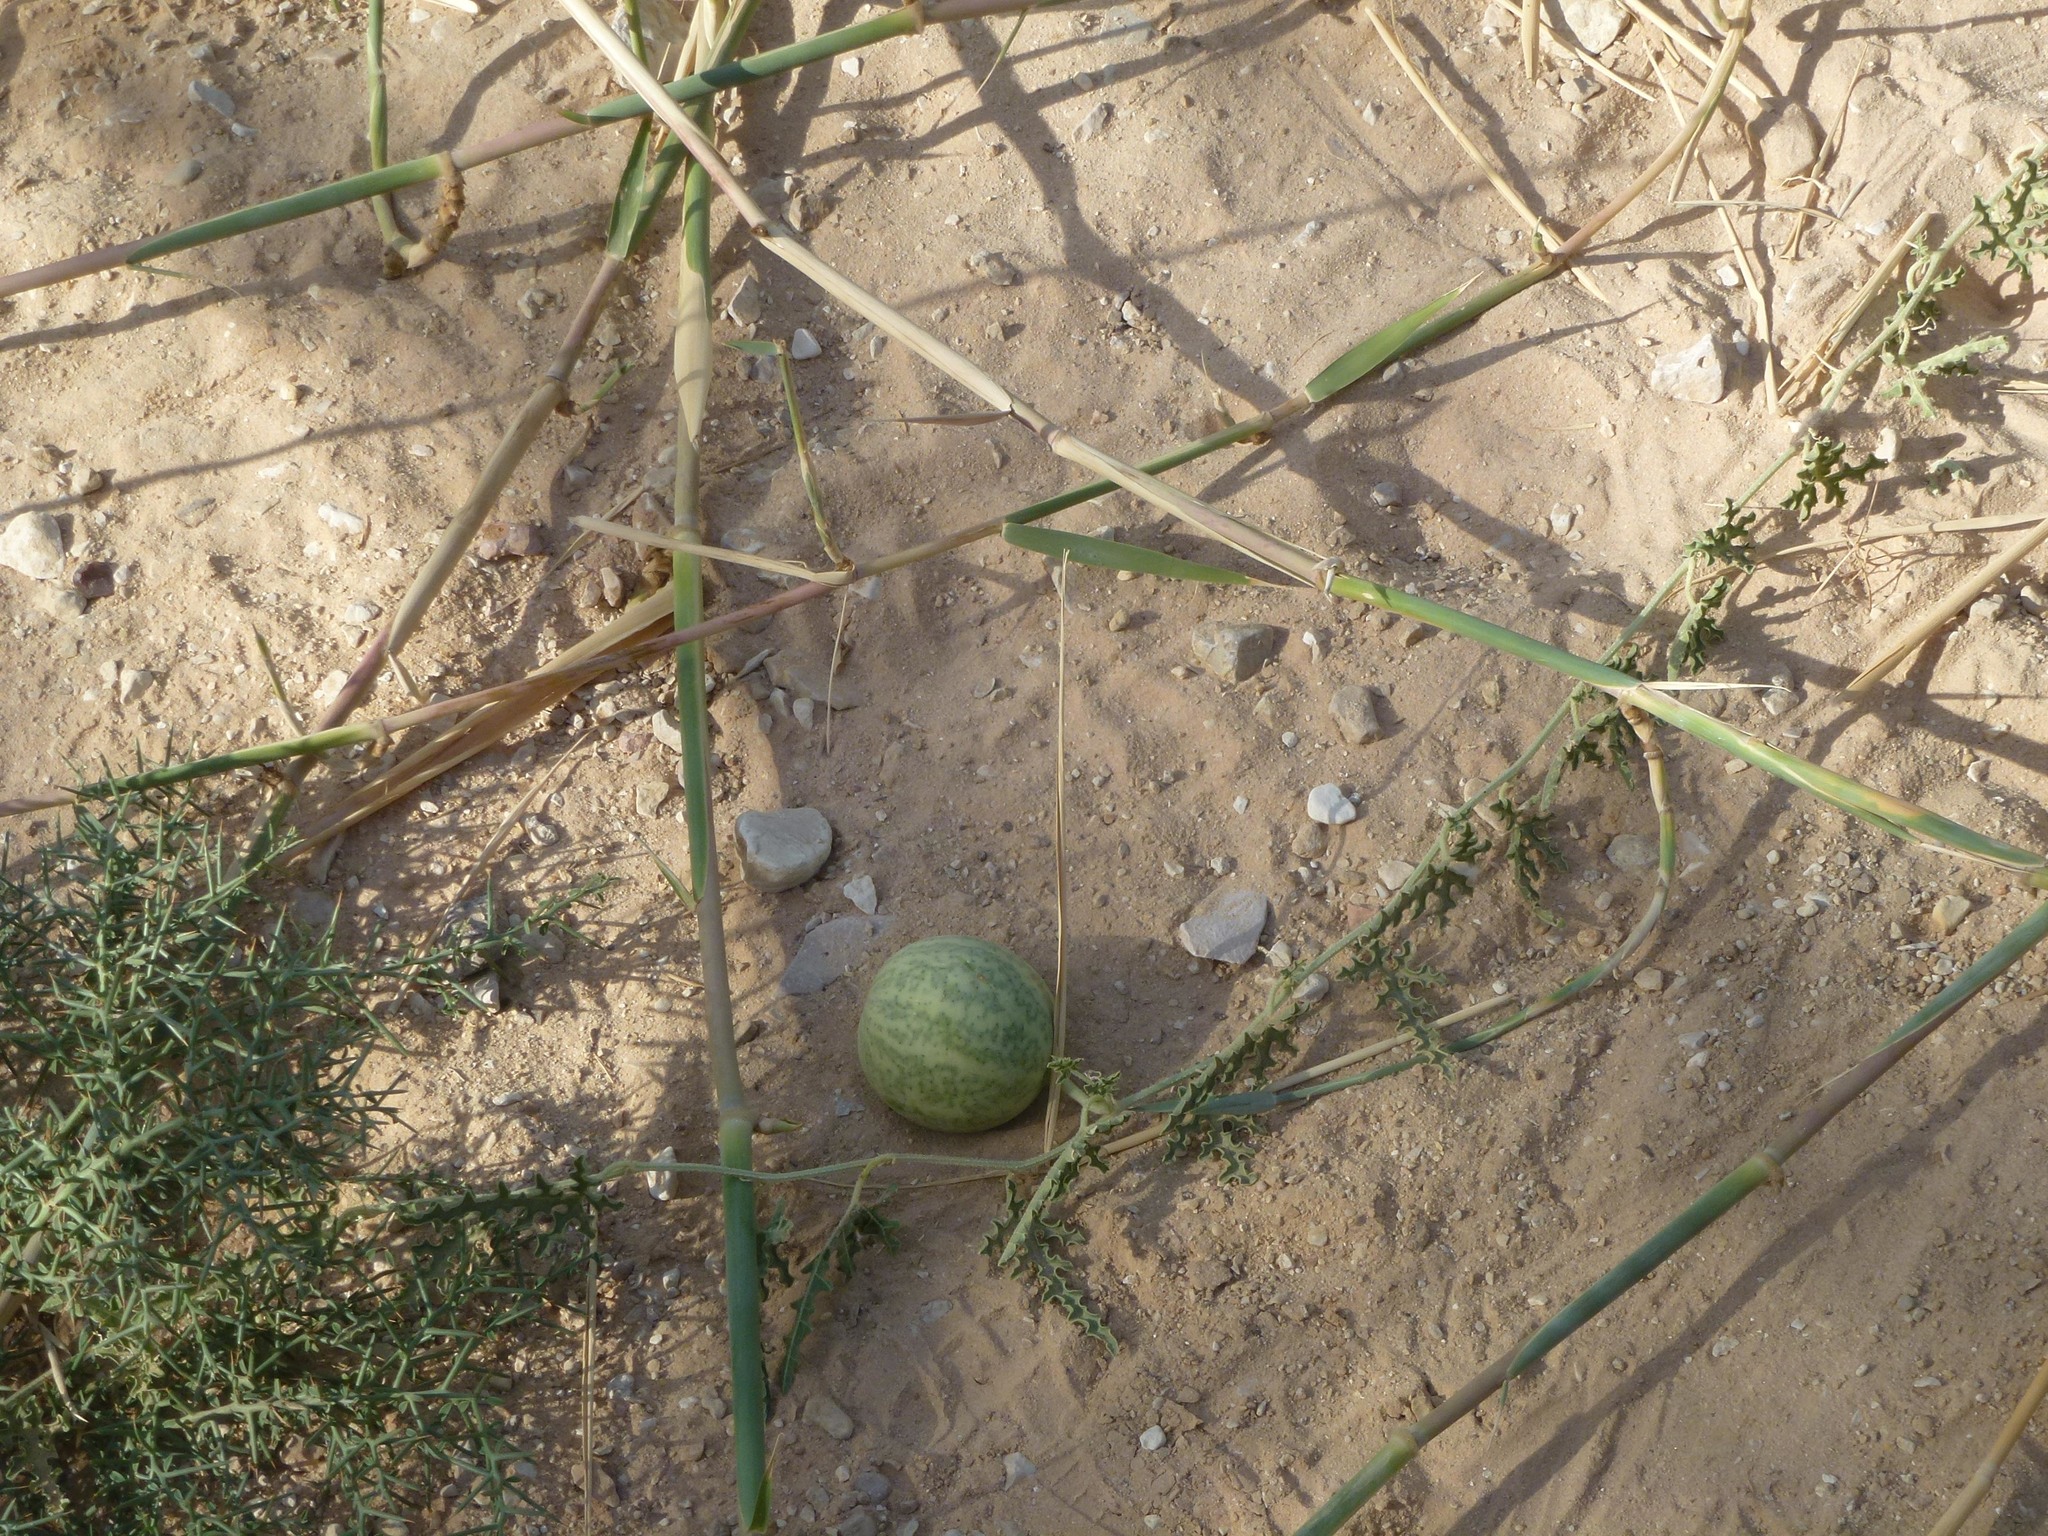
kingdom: Plantae
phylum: Tracheophyta
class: Magnoliopsida
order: Cucurbitales
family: Cucurbitaceae
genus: Citrullus
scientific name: Citrullus colocynthis
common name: Colocynth
